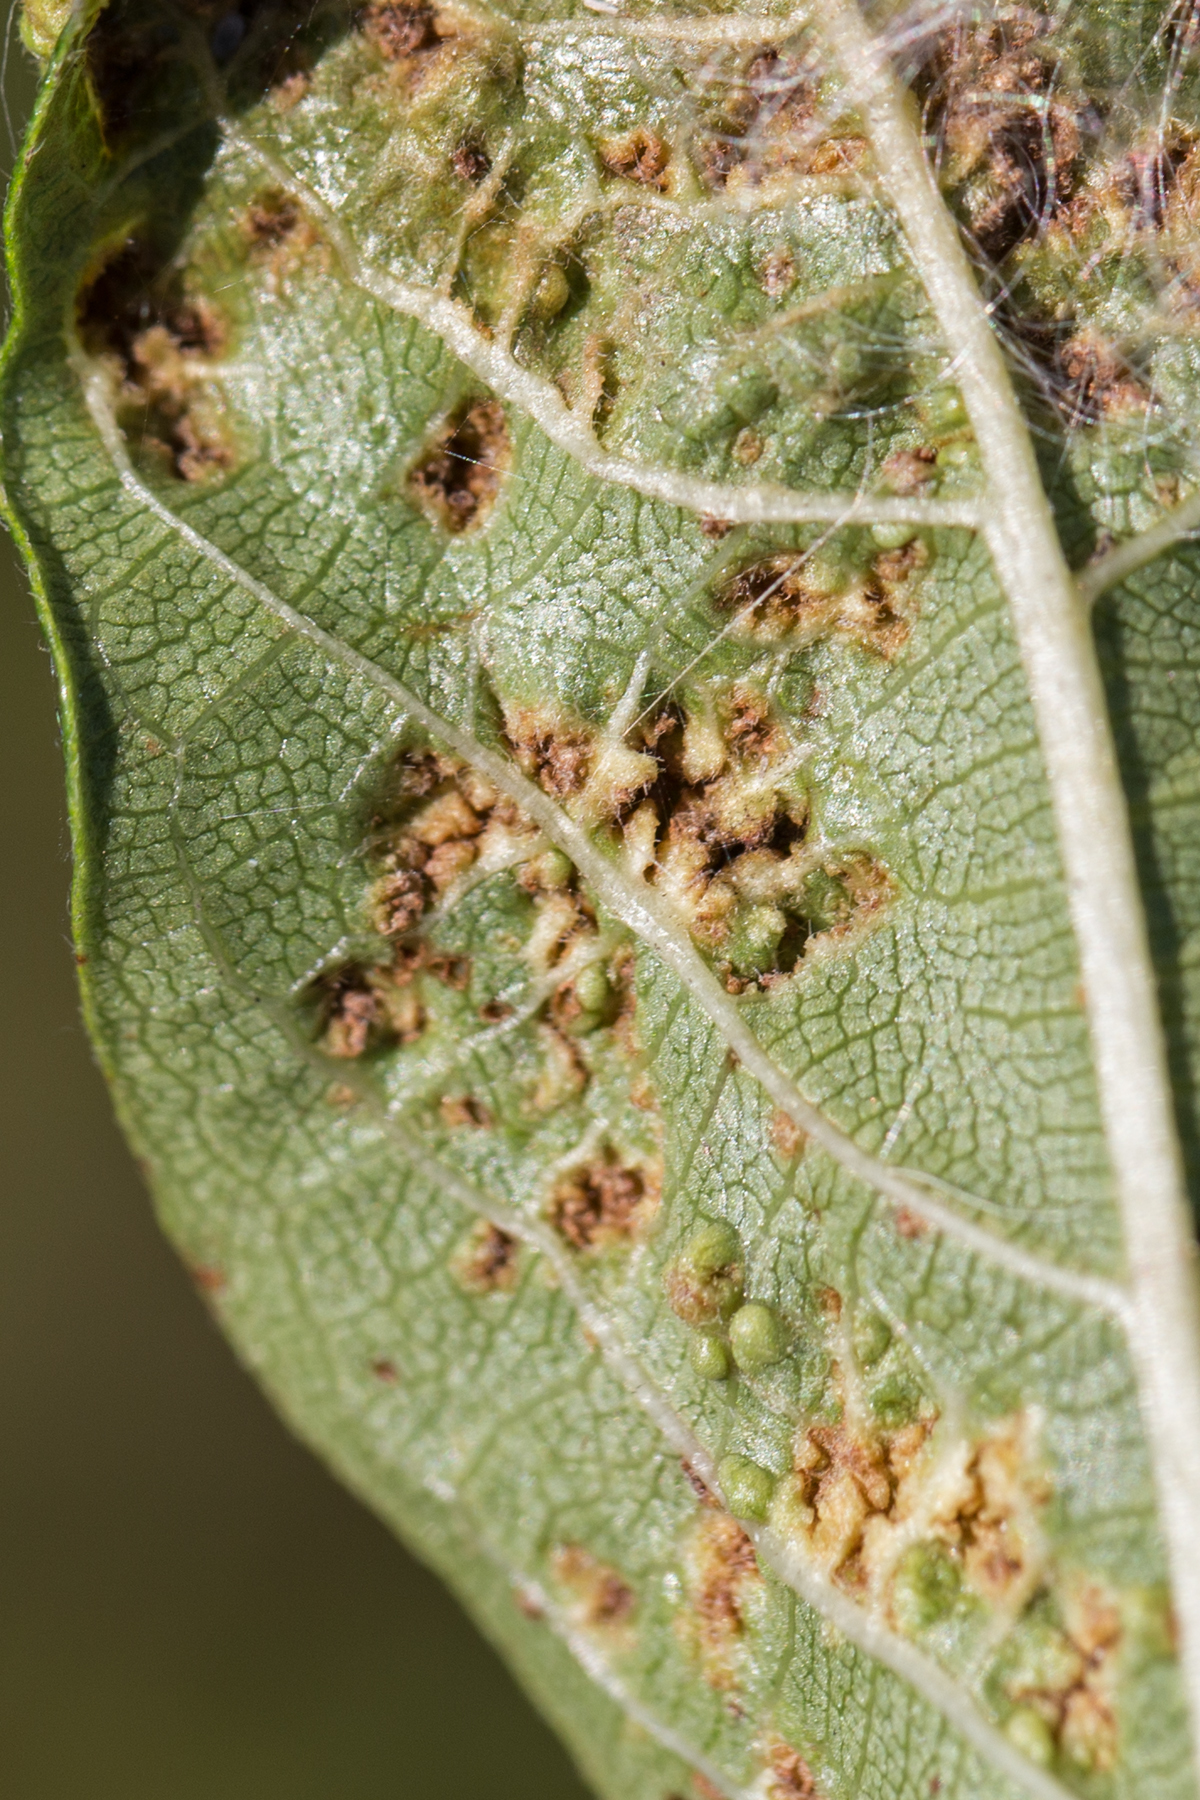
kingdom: Animalia
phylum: Arthropoda
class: Arachnida
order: Trombidiformes
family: Eriophyidae
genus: Aceria
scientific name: Aceria
